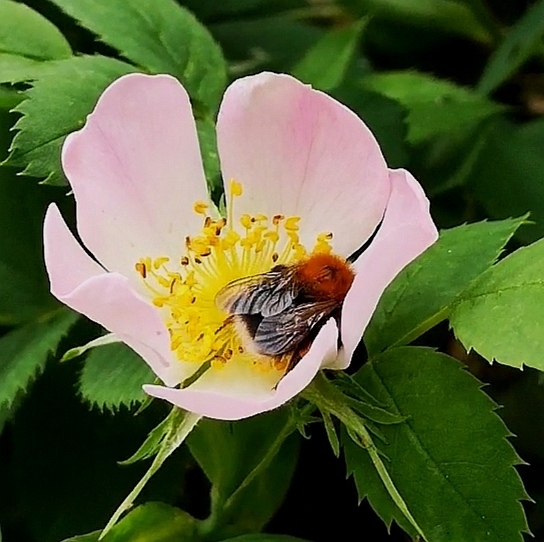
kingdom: Animalia
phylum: Arthropoda
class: Insecta
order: Hymenoptera
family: Apidae
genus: Bombus
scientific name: Bombus hypnorum
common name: New garden bumblebee
